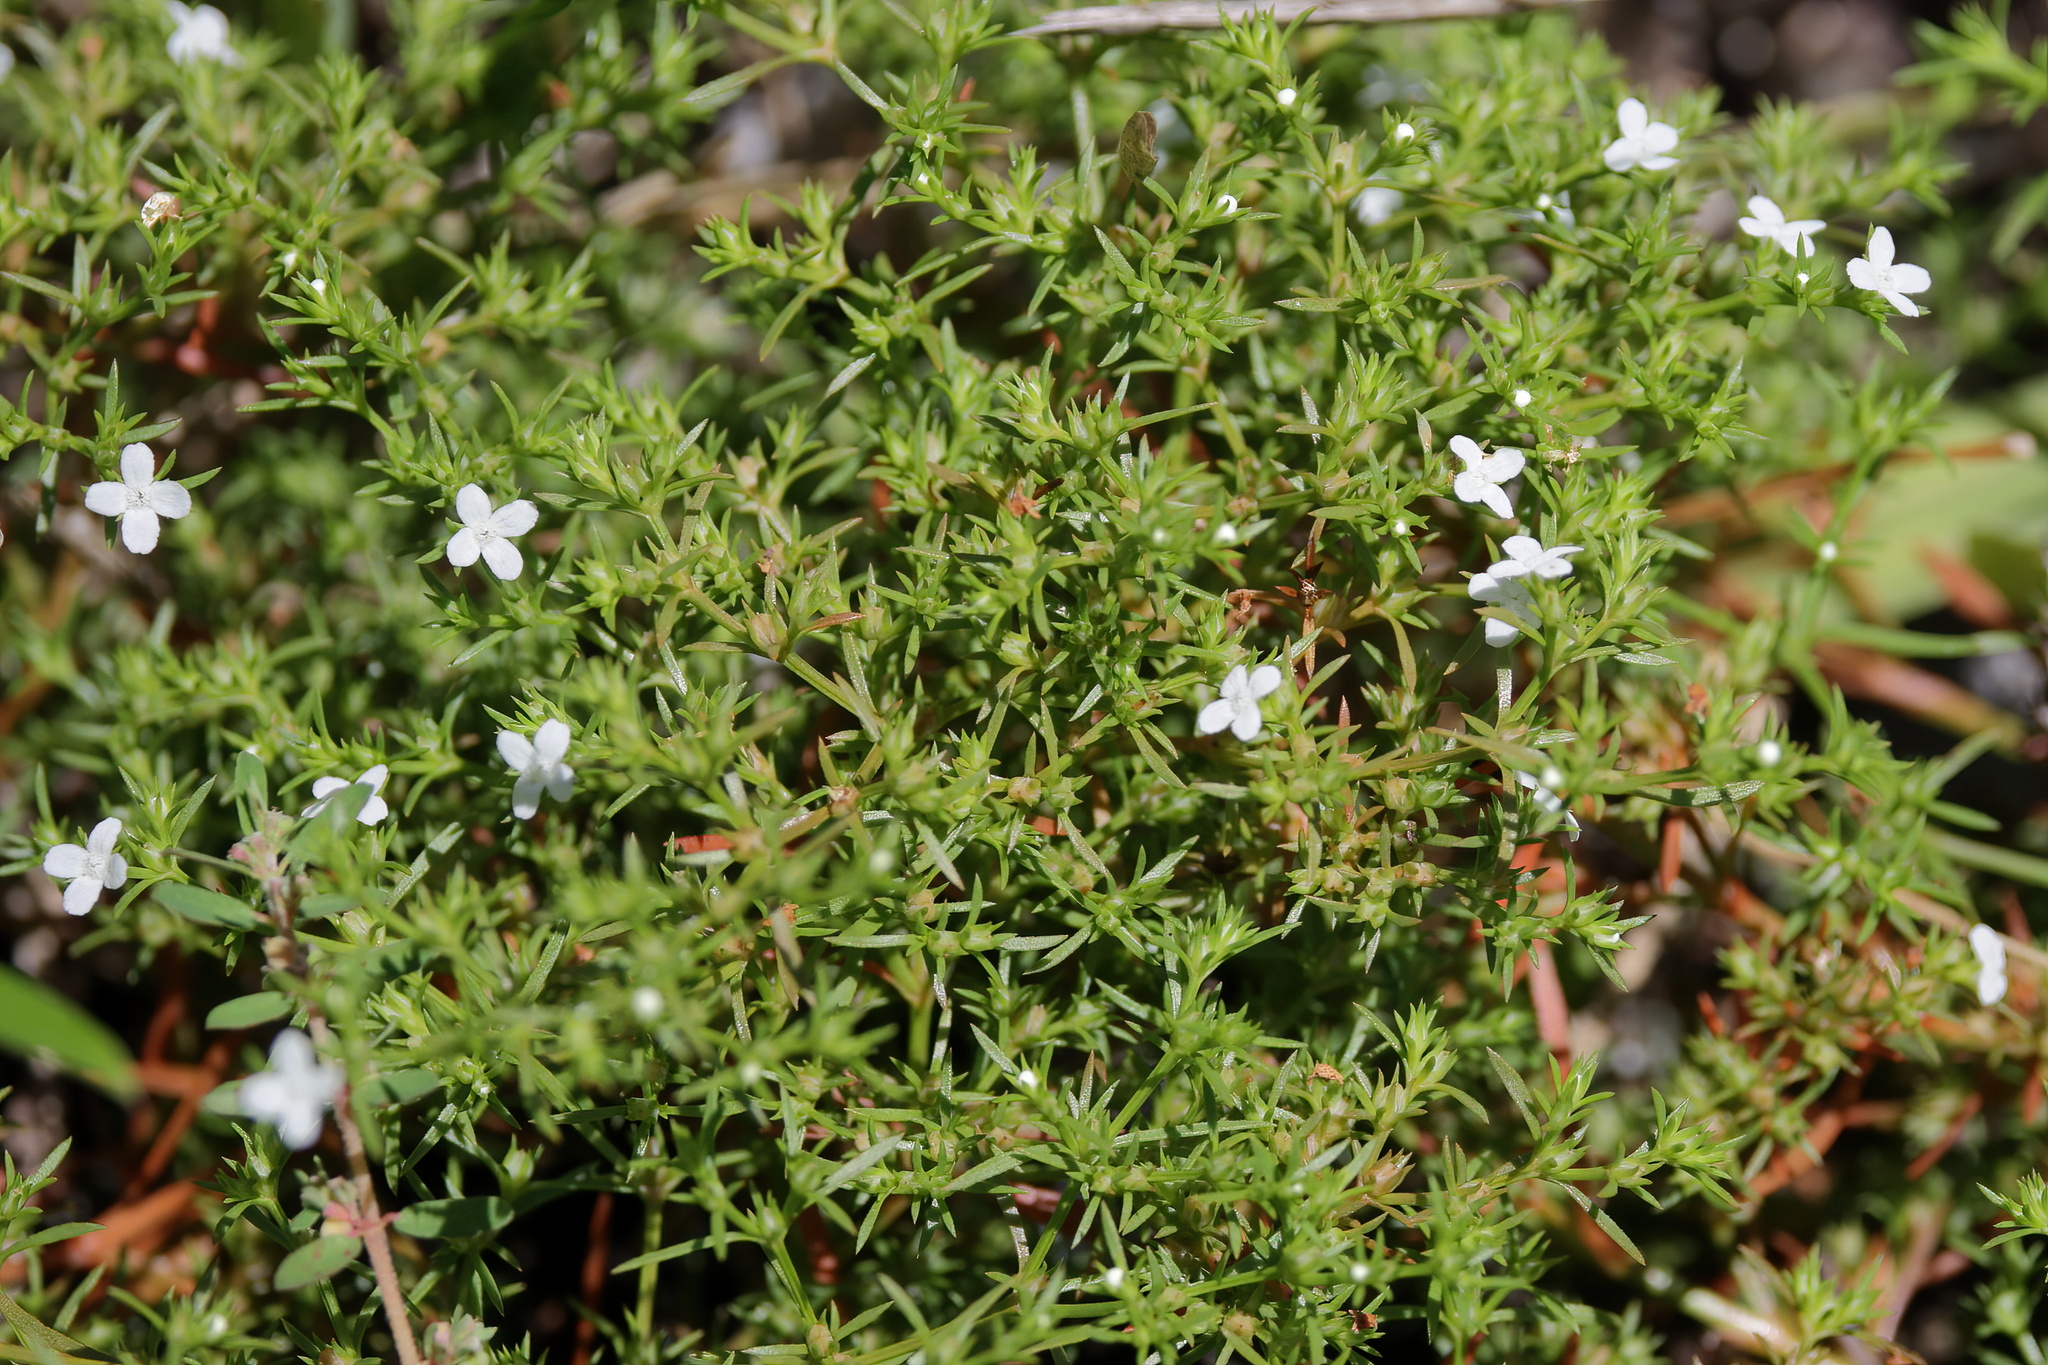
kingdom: Plantae
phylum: Tracheophyta
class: Magnoliopsida
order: Lamiales
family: Tetrachondraceae
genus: Polypremum
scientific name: Polypremum procumbens
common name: Juniper-leaf
